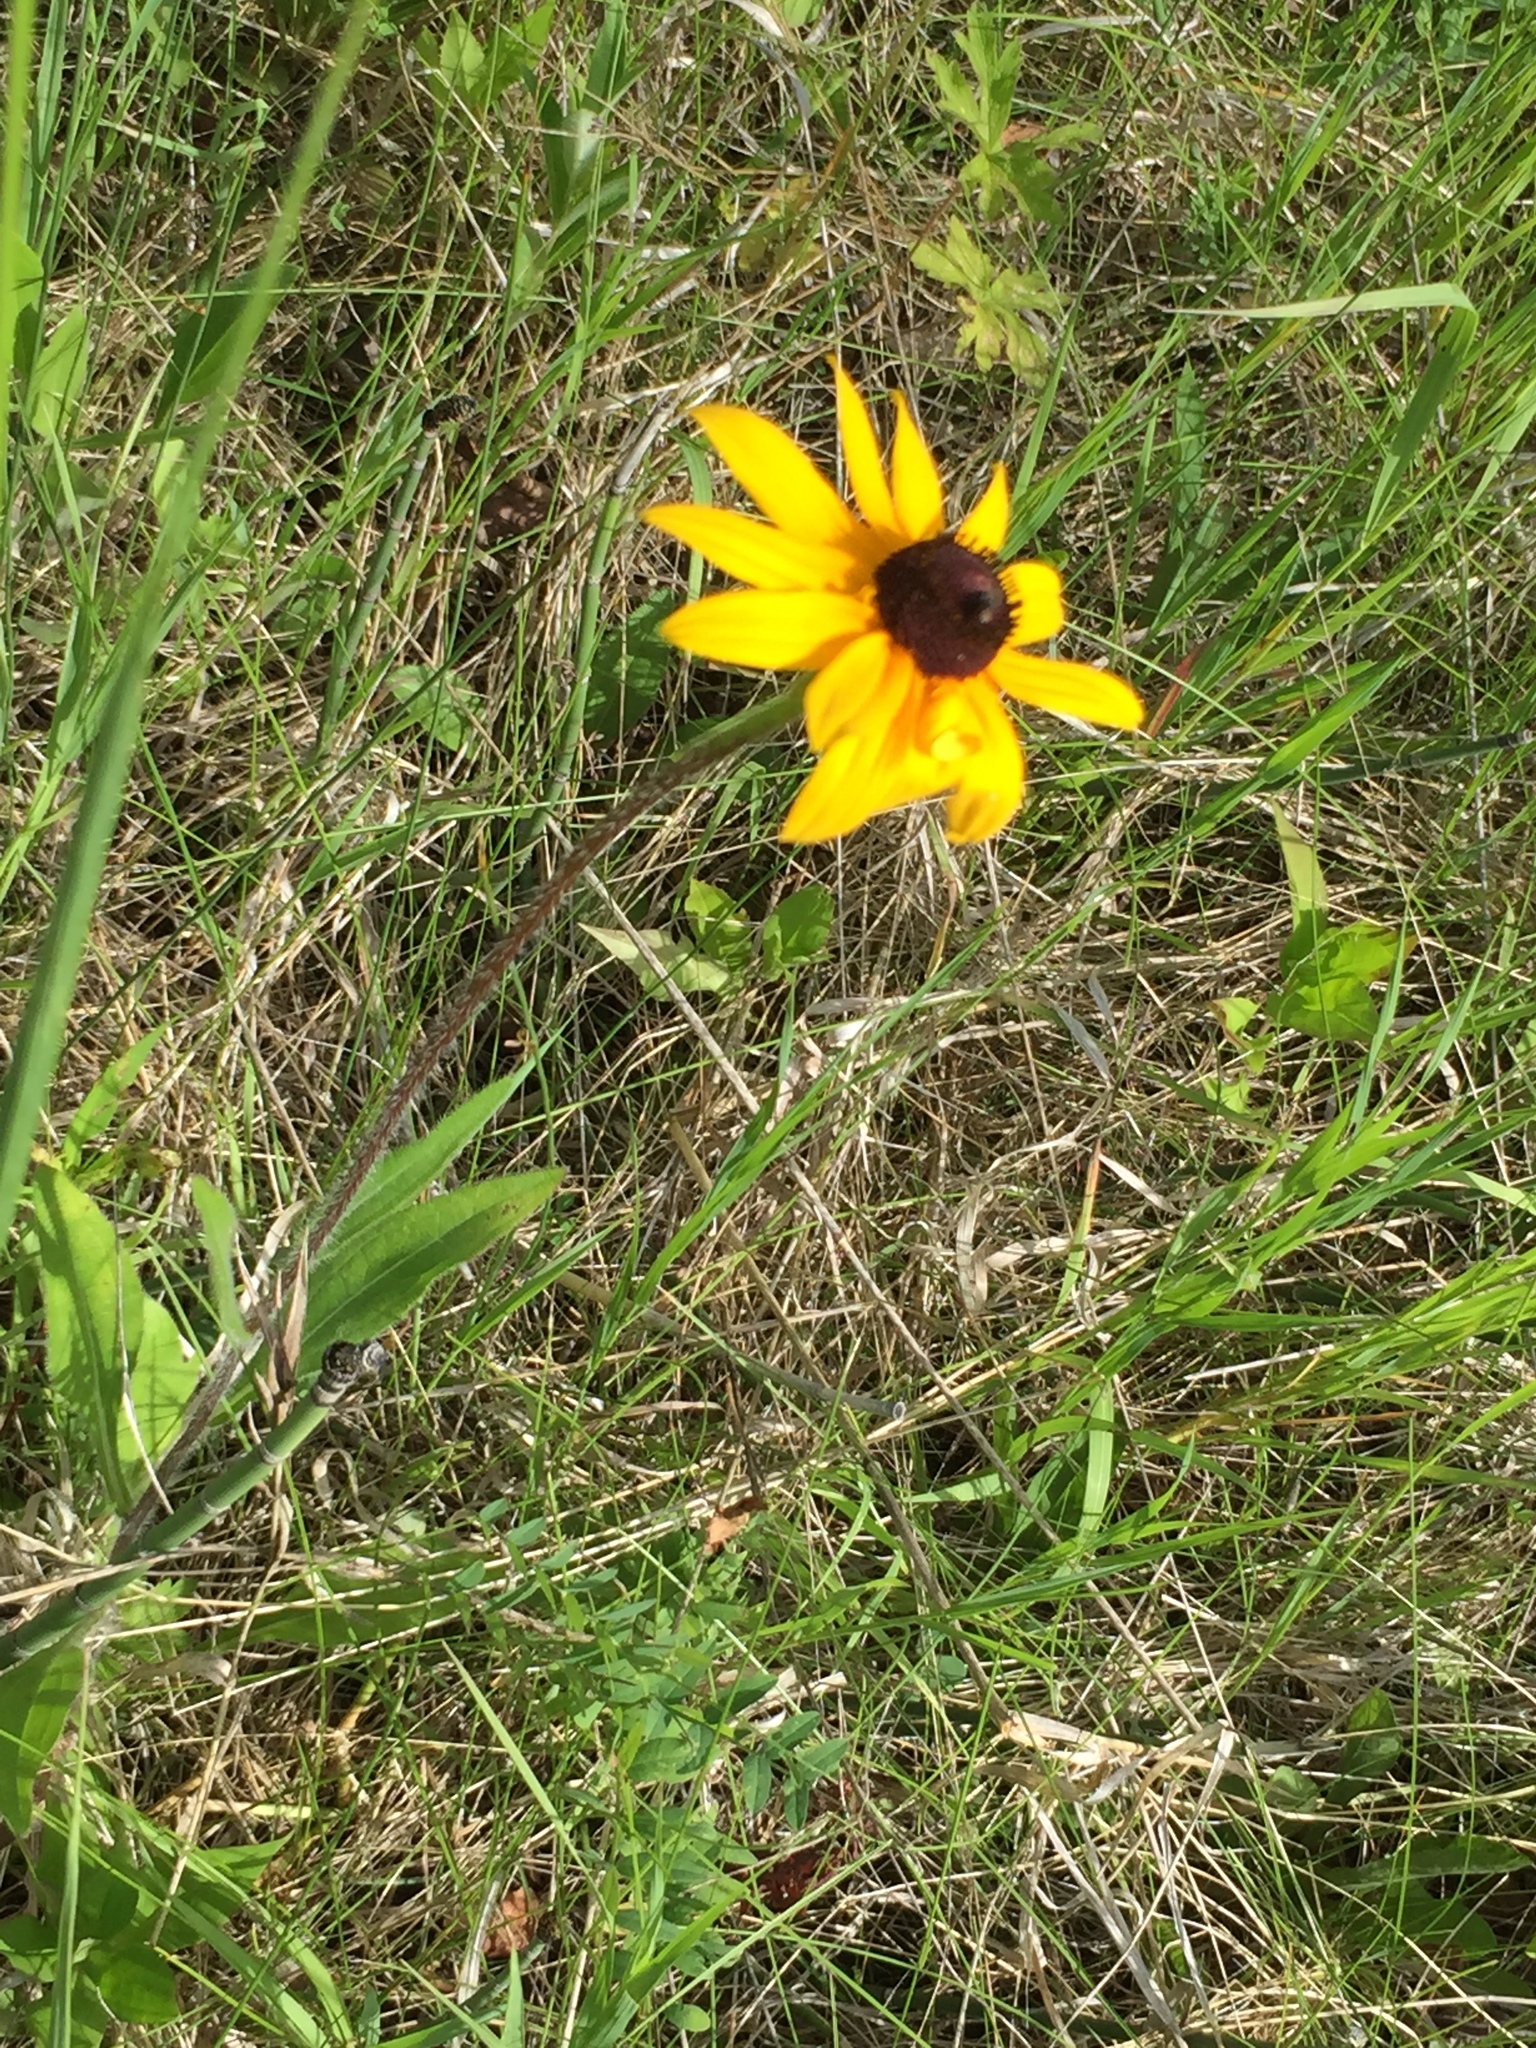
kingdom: Plantae
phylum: Tracheophyta
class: Magnoliopsida
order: Asterales
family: Asteraceae
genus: Rudbeckia
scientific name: Rudbeckia hirta
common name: Black-eyed-susan
